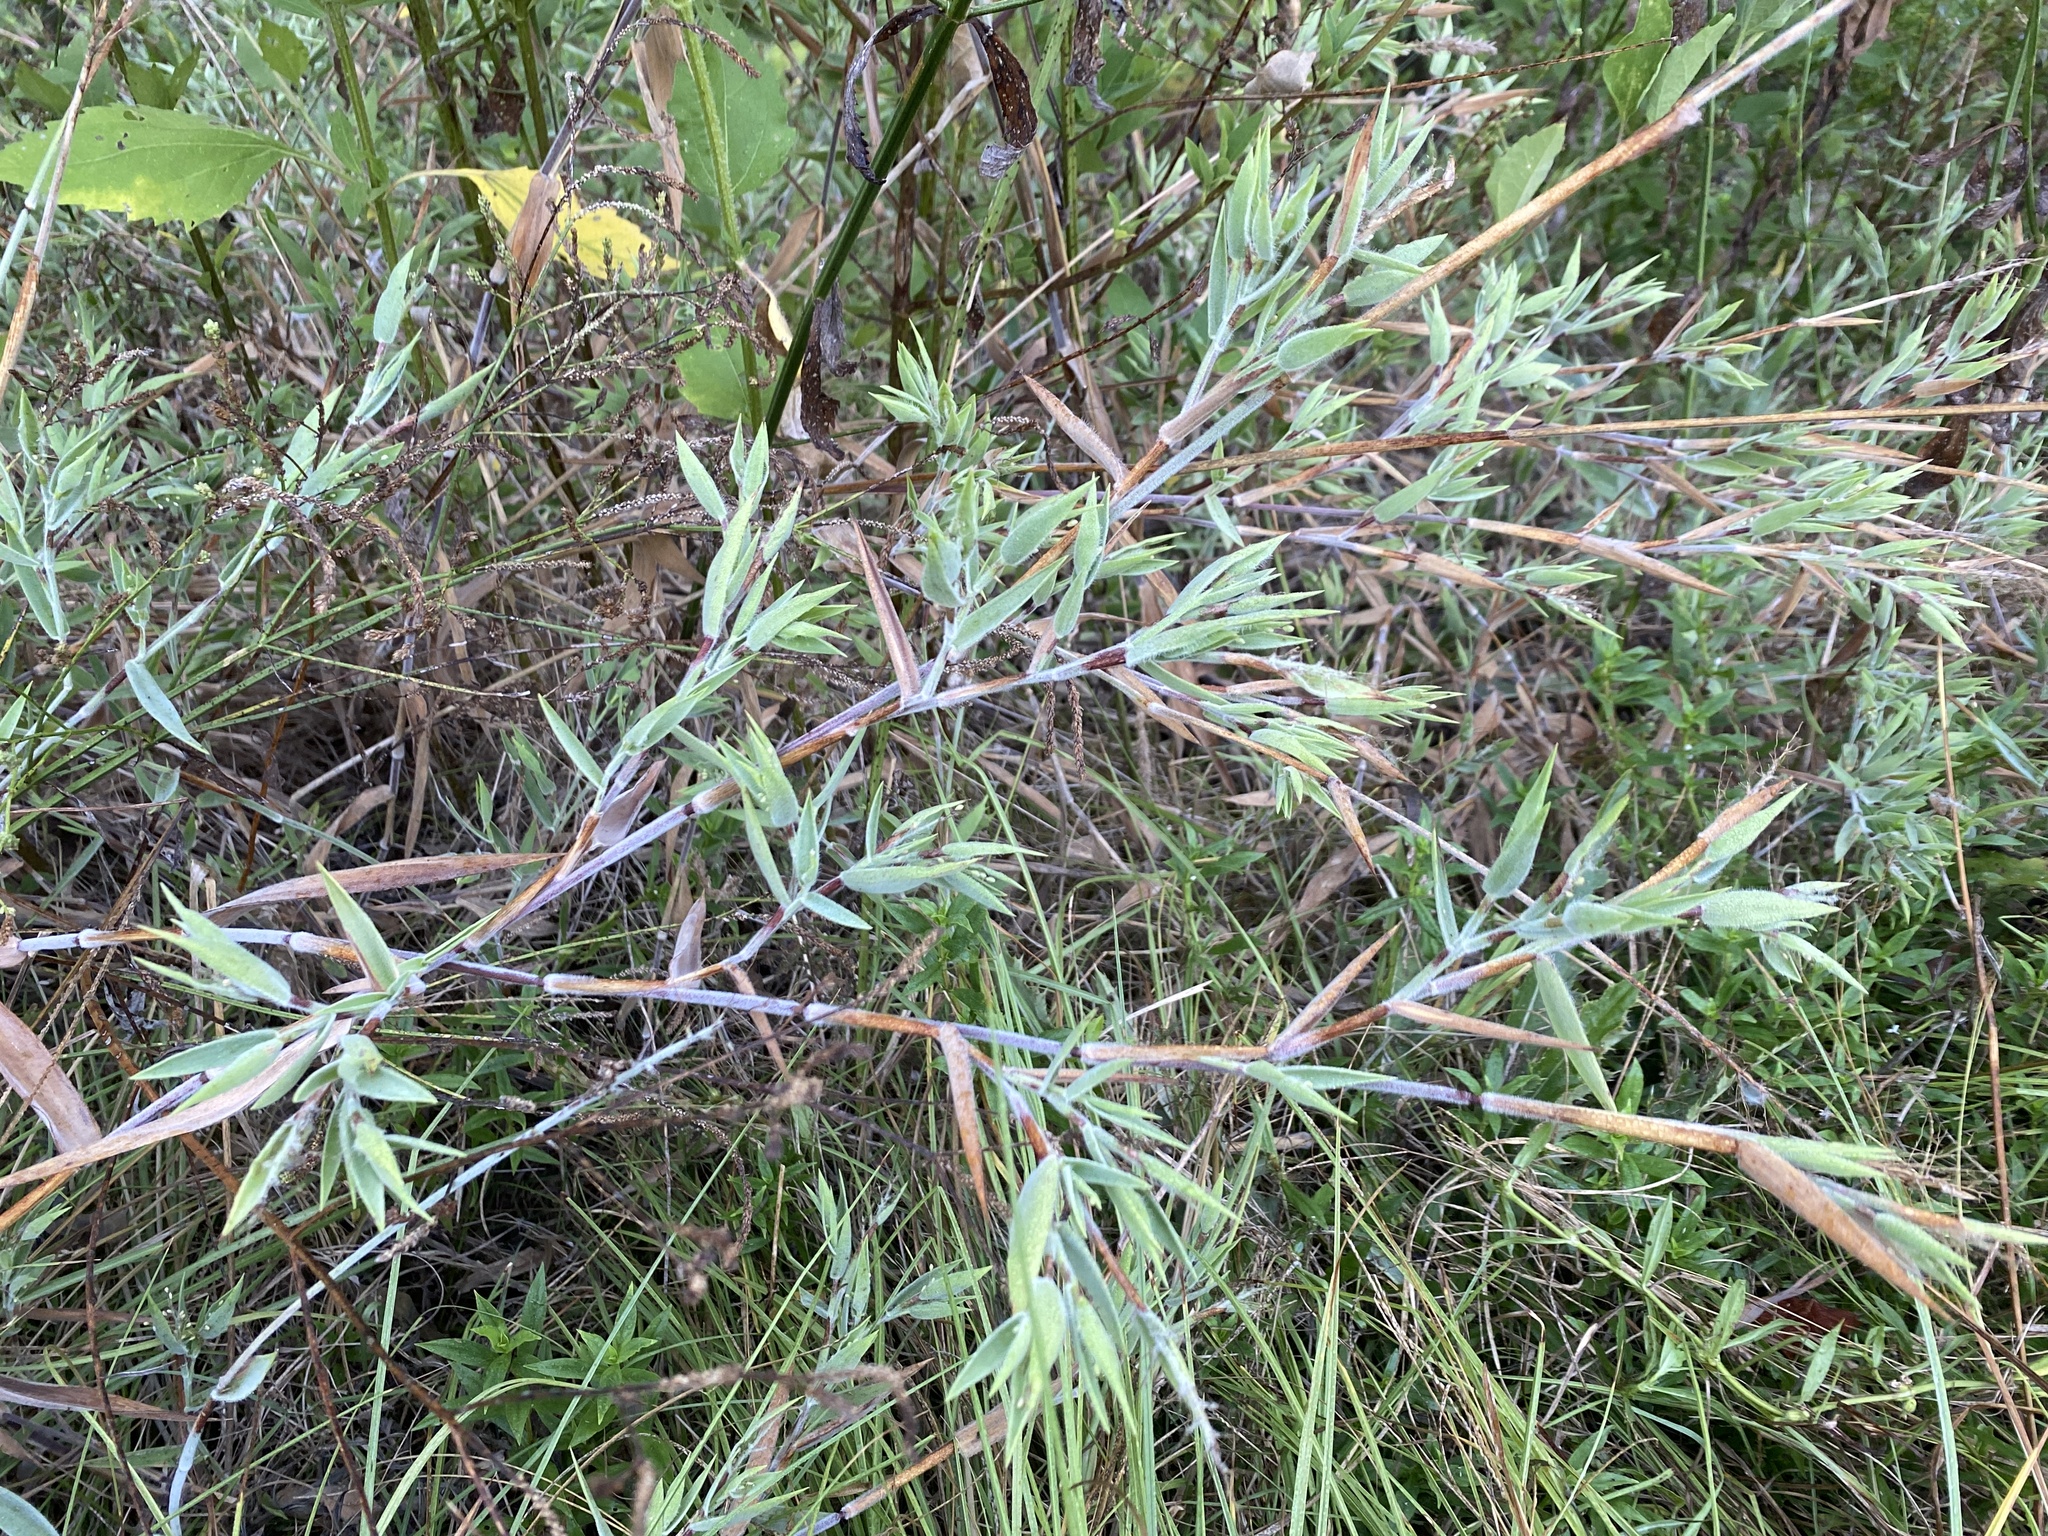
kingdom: Plantae
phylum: Tracheophyta
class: Liliopsida
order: Poales
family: Poaceae
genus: Dichanthelium
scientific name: Dichanthelium scoparium
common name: Velvety panic grass
